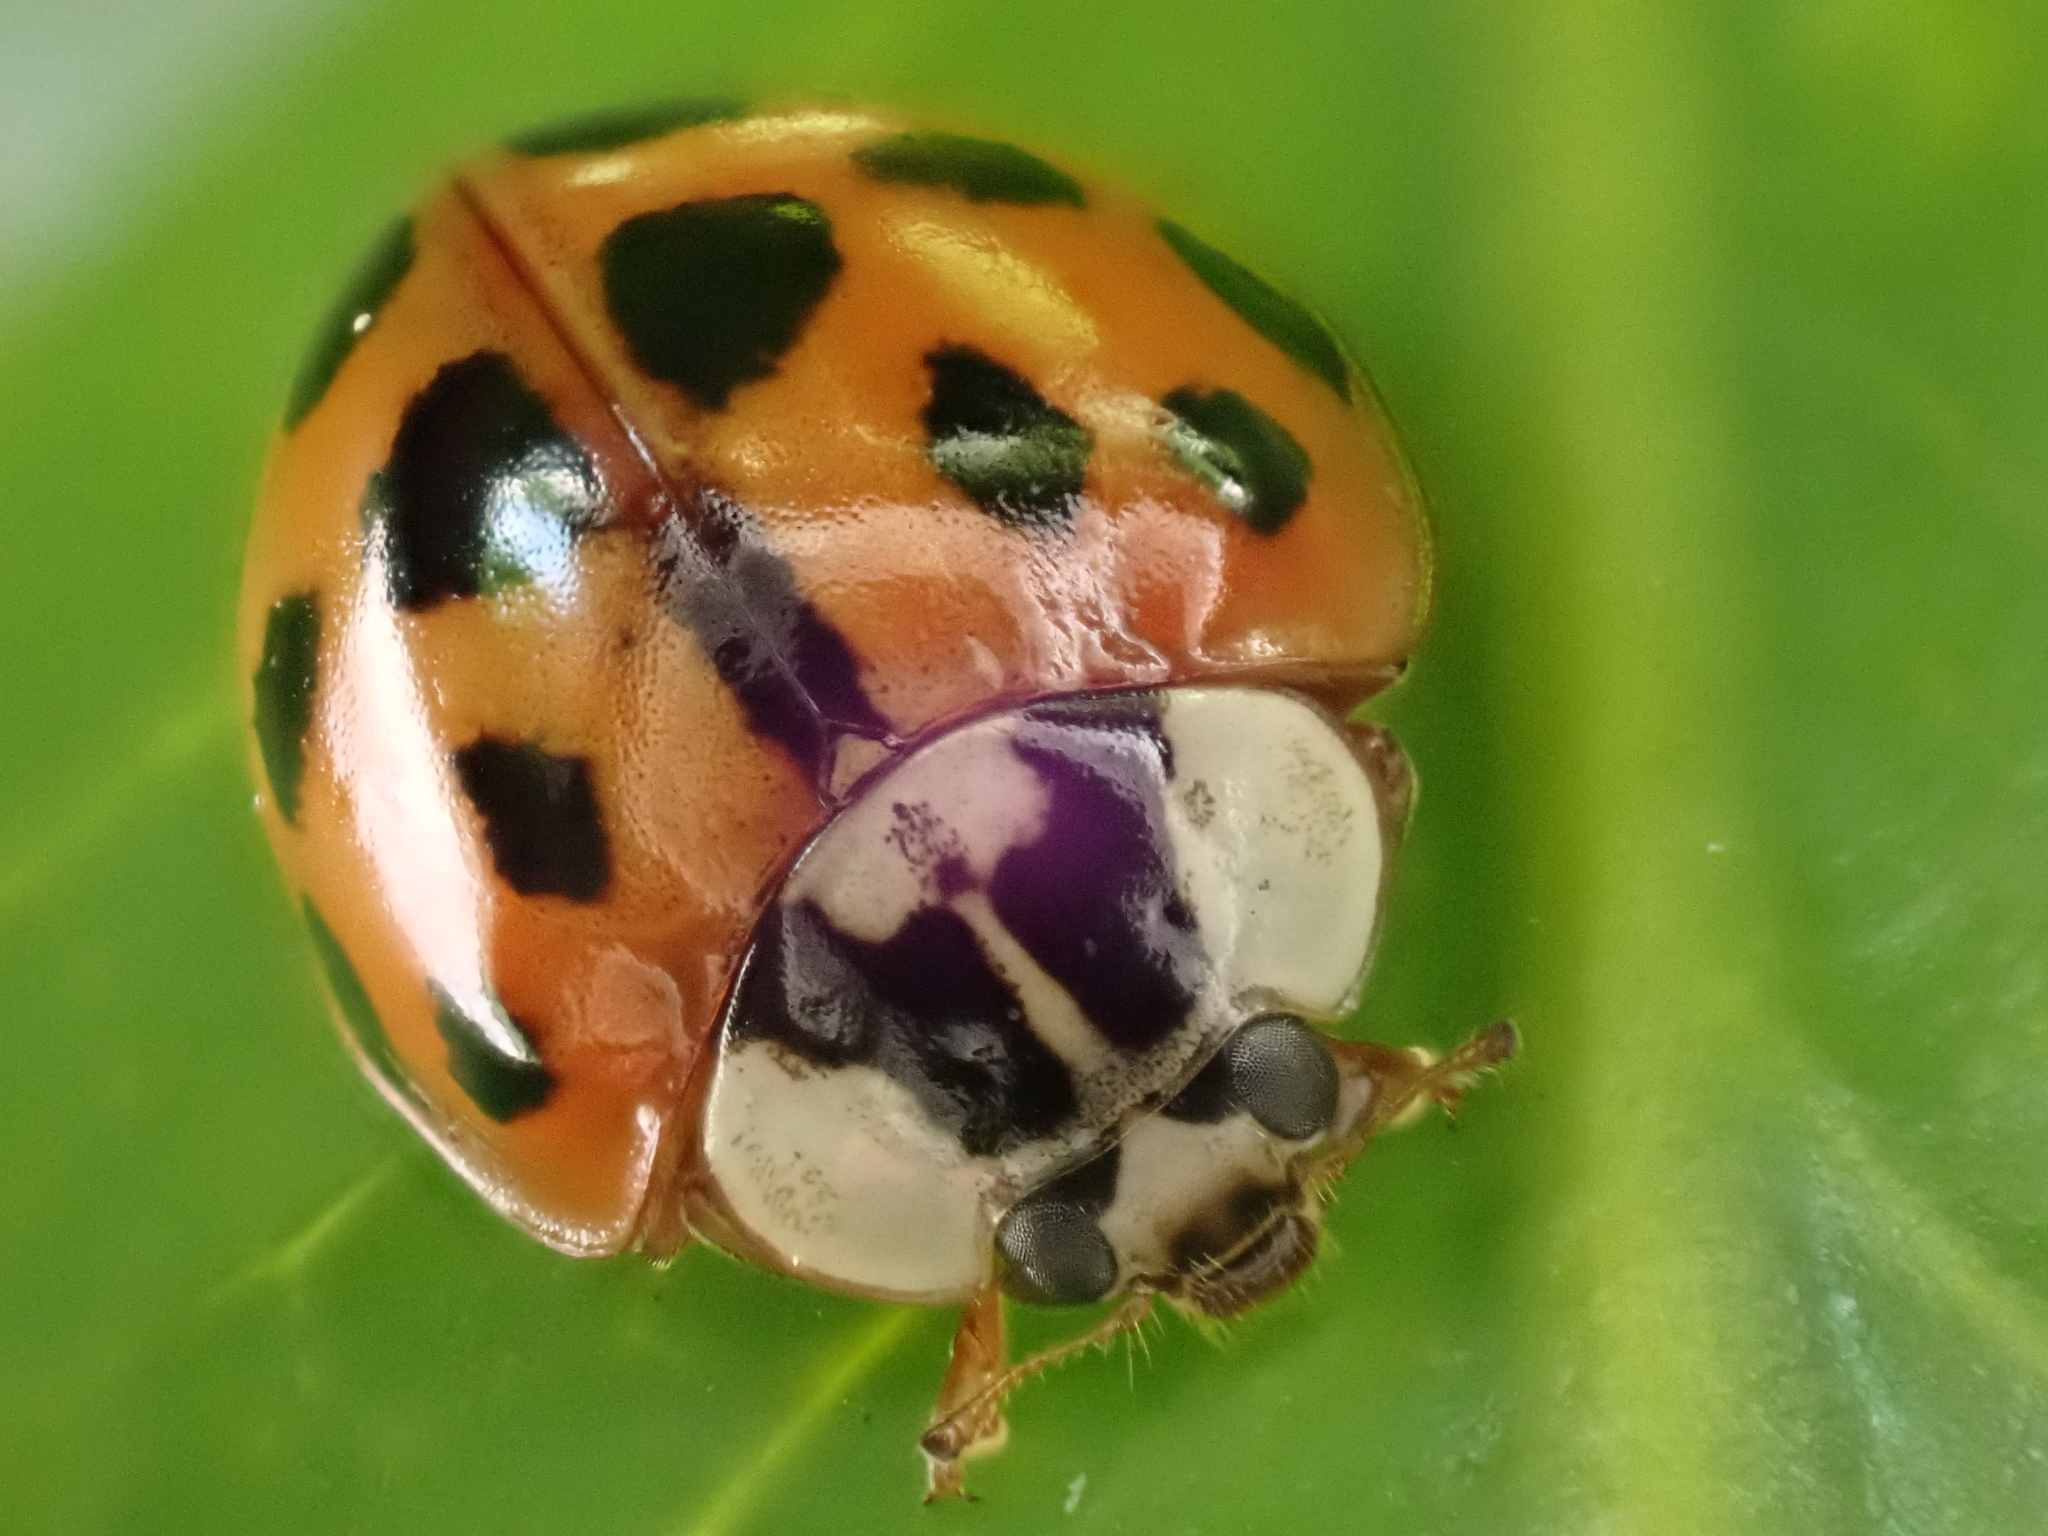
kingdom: Animalia
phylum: Arthropoda
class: Insecta
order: Coleoptera
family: Coccinellidae
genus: Harmonia
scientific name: Harmonia axyridis
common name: Harlequin ladybird
